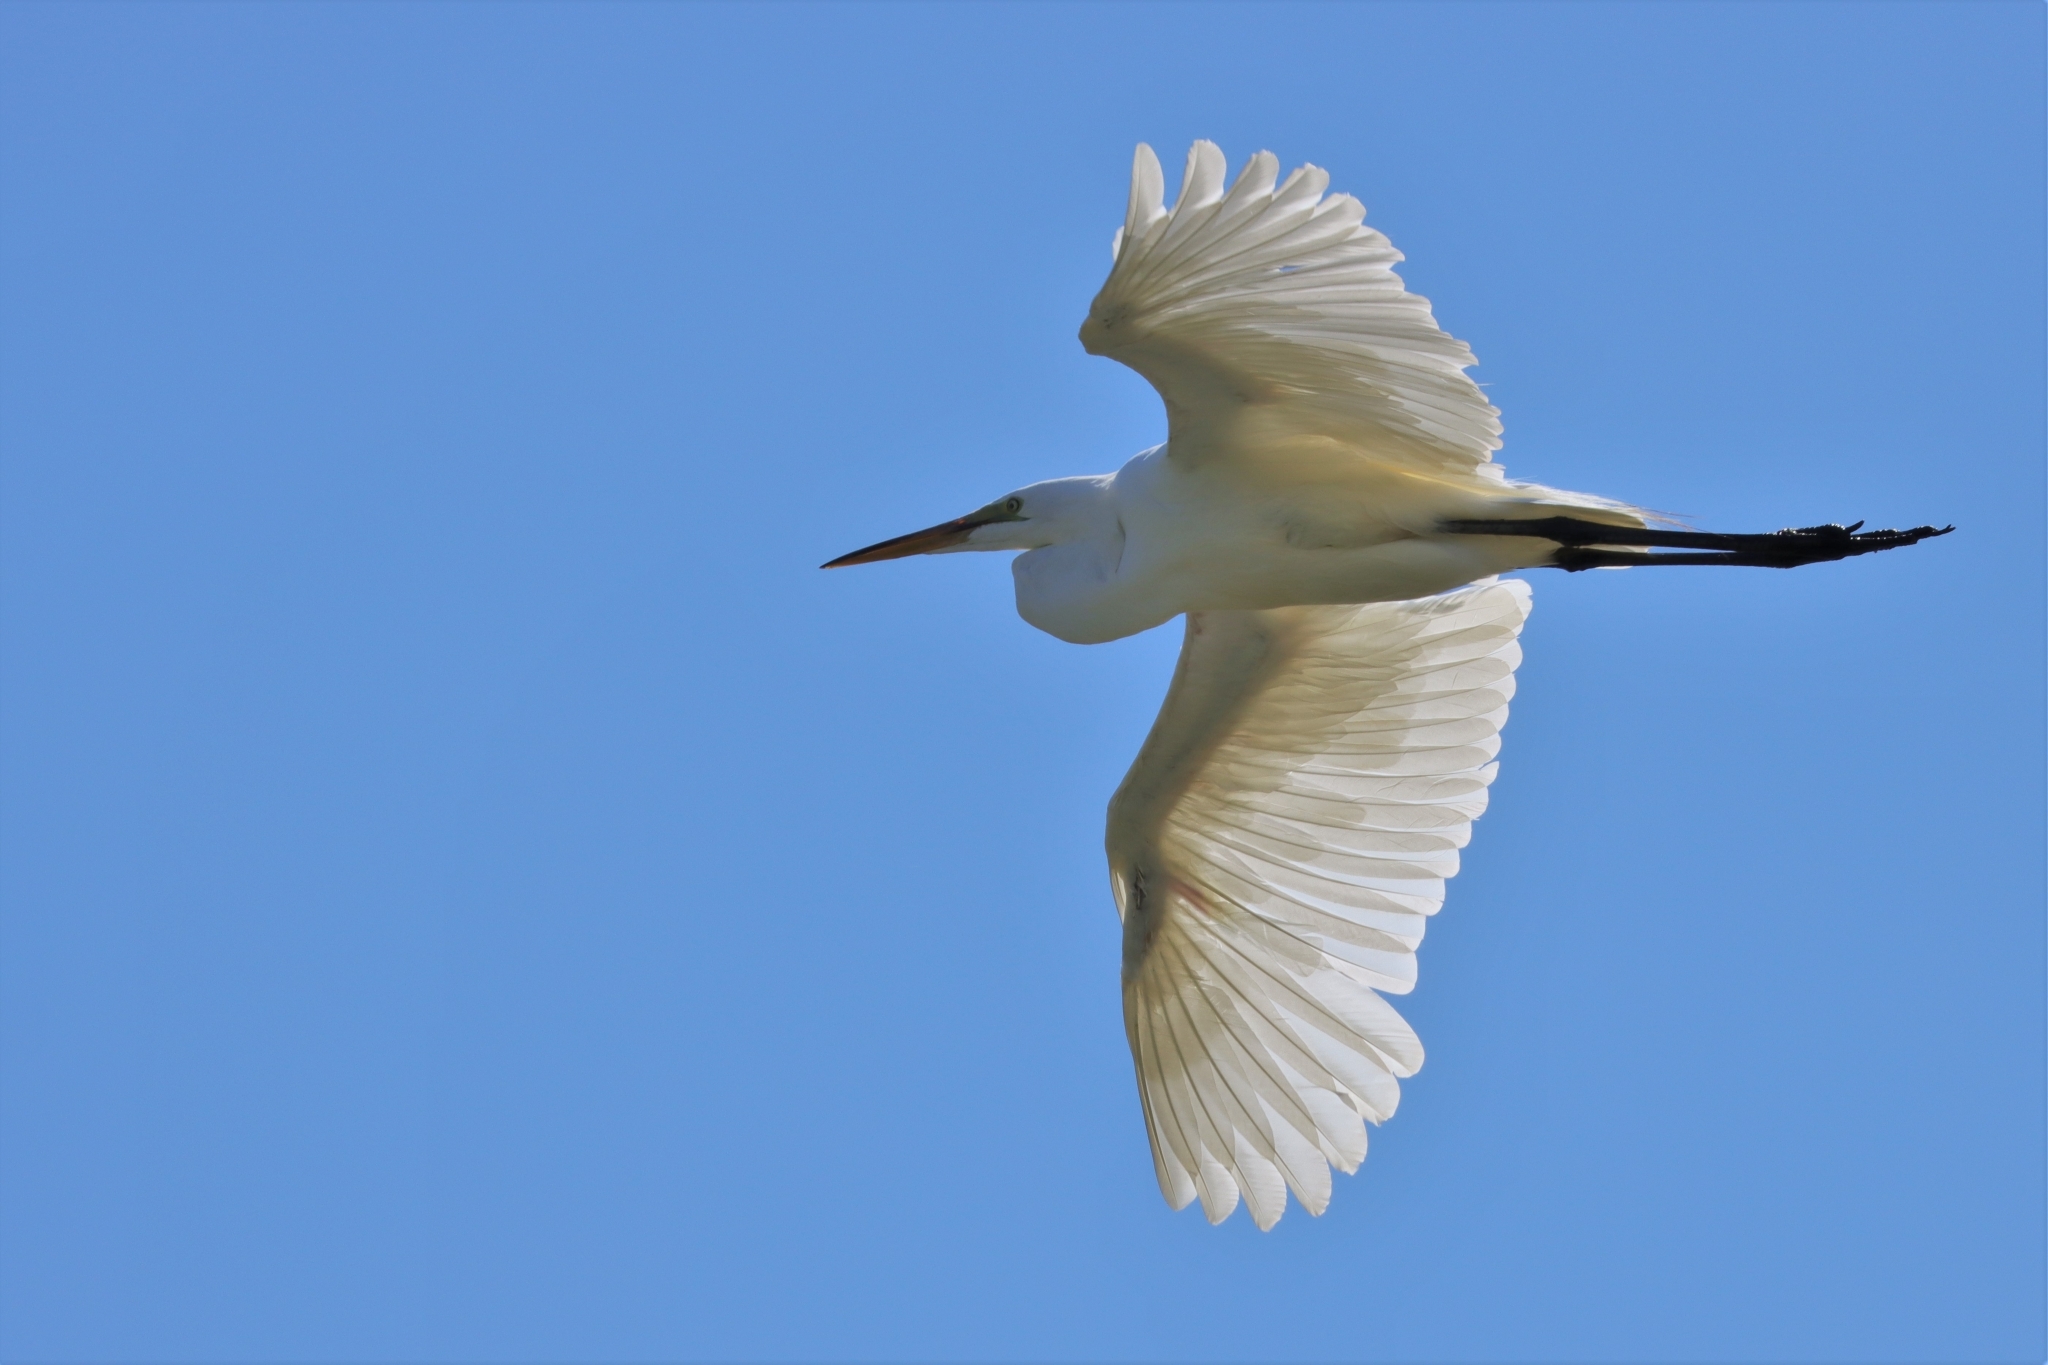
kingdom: Animalia
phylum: Chordata
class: Aves
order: Pelecaniformes
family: Ardeidae
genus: Ardea
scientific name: Ardea alba
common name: Great egret
